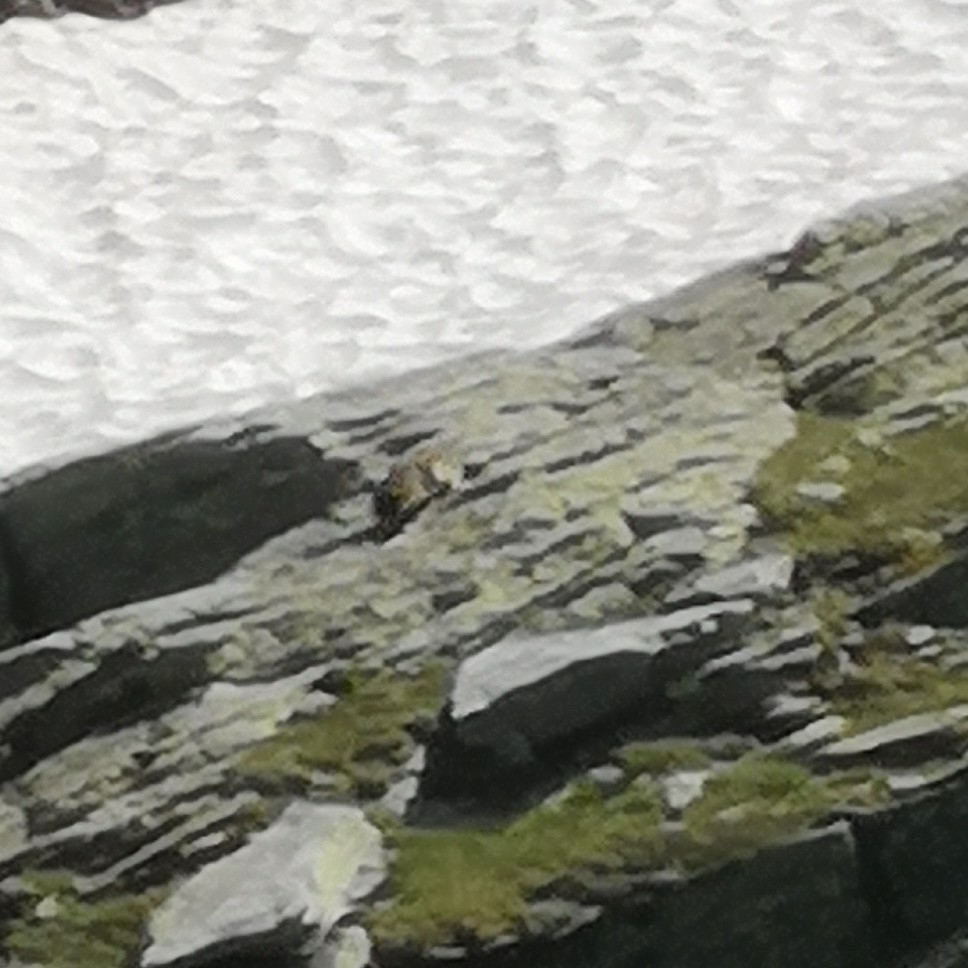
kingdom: Animalia
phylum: Chordata
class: Mammalia
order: Rodentia
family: Sciuridae
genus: Marmota
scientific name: Marmota marmota
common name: Alpine marmot
